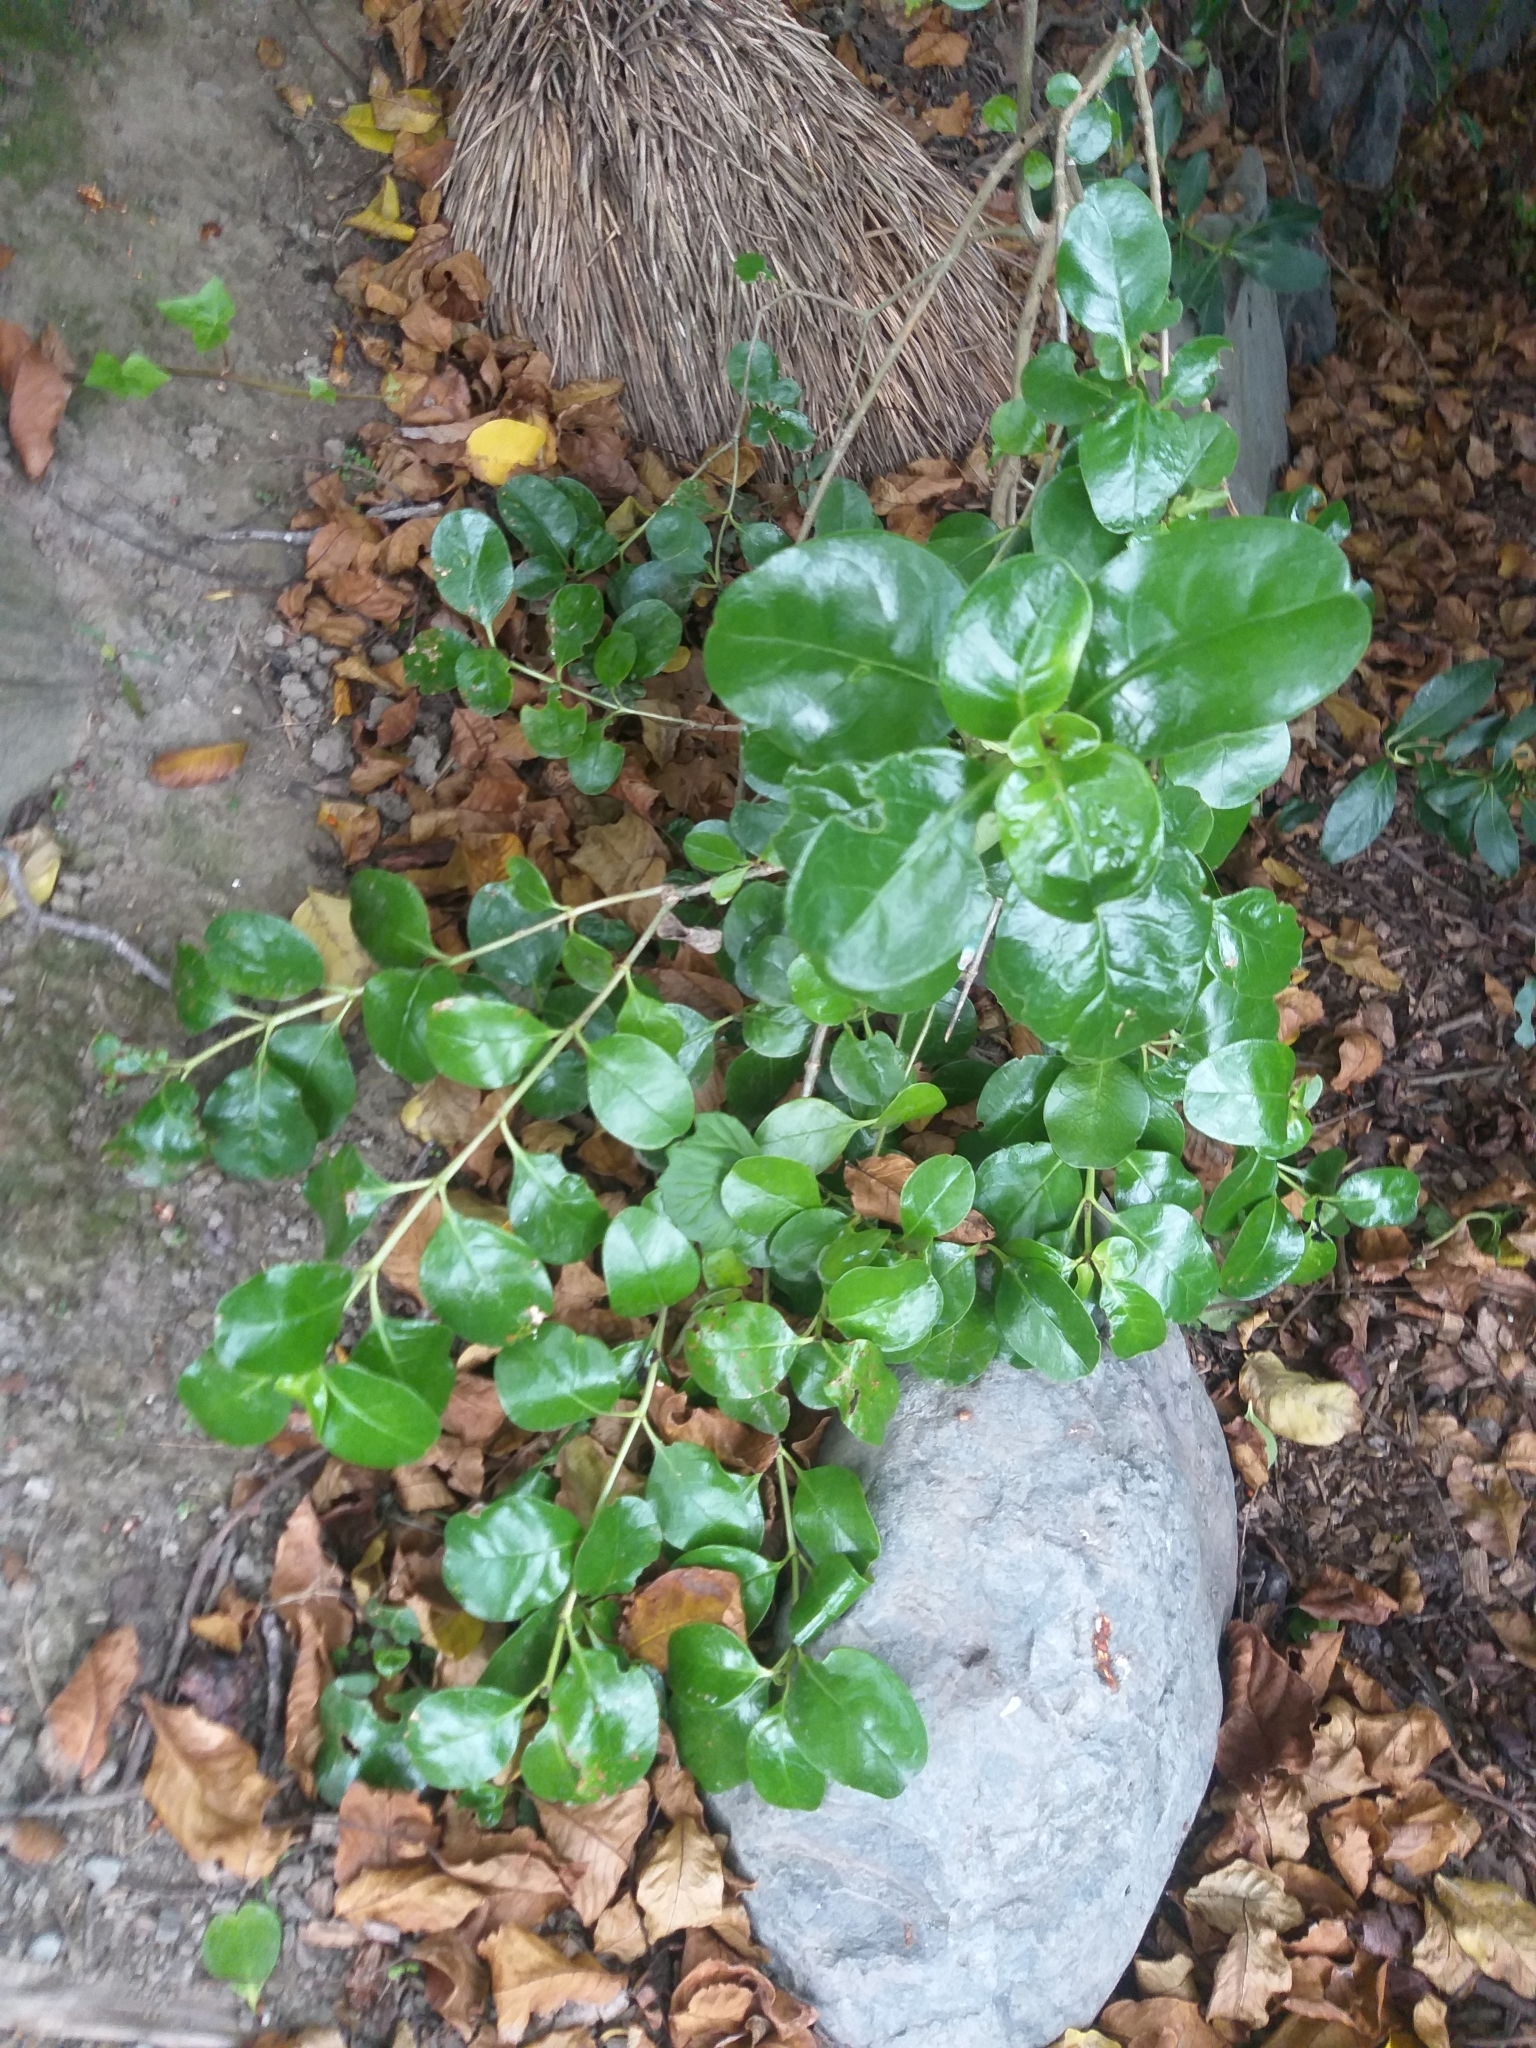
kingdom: Plantae
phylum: Tracheophyta
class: Magnoliopsida
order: Gentianales
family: Rubiaceae
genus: Coprosma
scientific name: Coprosma repens
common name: Tree bedstraw
